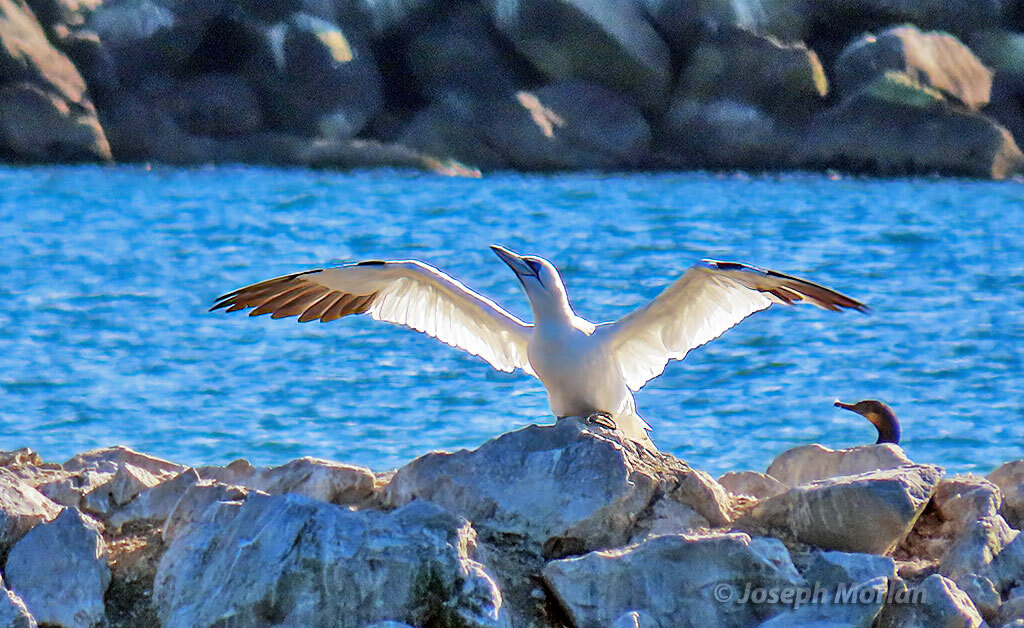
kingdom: Animalia
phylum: Chordata
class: Aves
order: Suliformes
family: Sulidae
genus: Morus
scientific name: Morus bassanus
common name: Northern gannet
